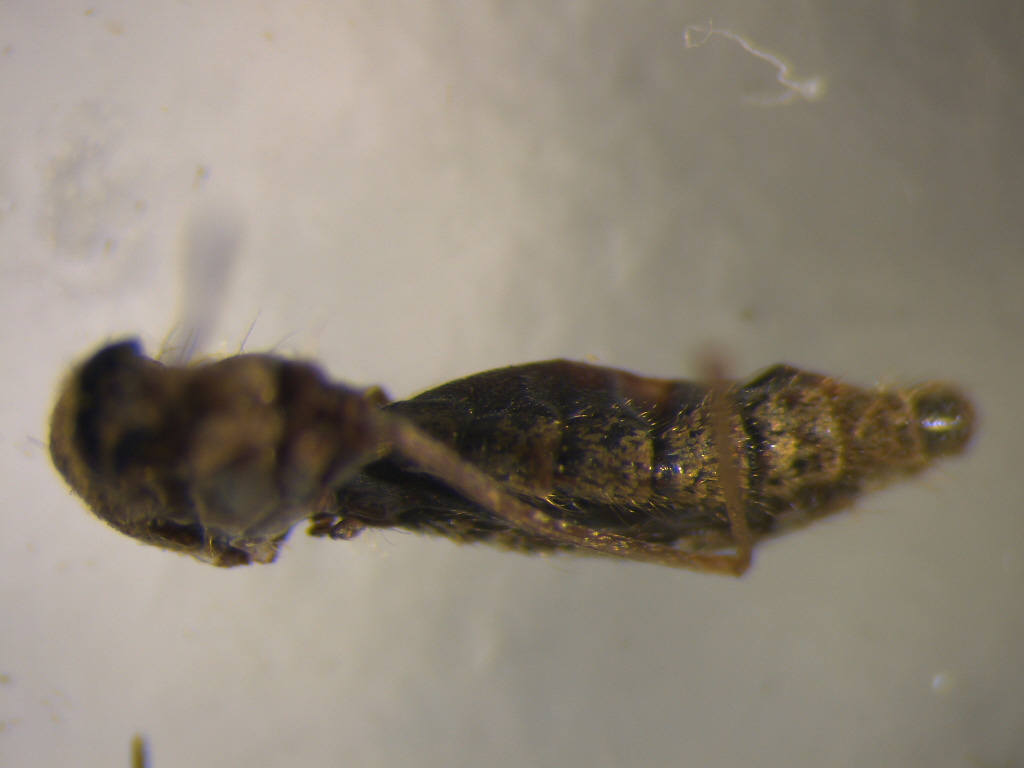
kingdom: Animalia
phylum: Arthropoda
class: Insecta
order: Diptera
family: Culicidae
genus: Culex
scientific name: Culex quinquefasciatus
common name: Southern house mosquito
